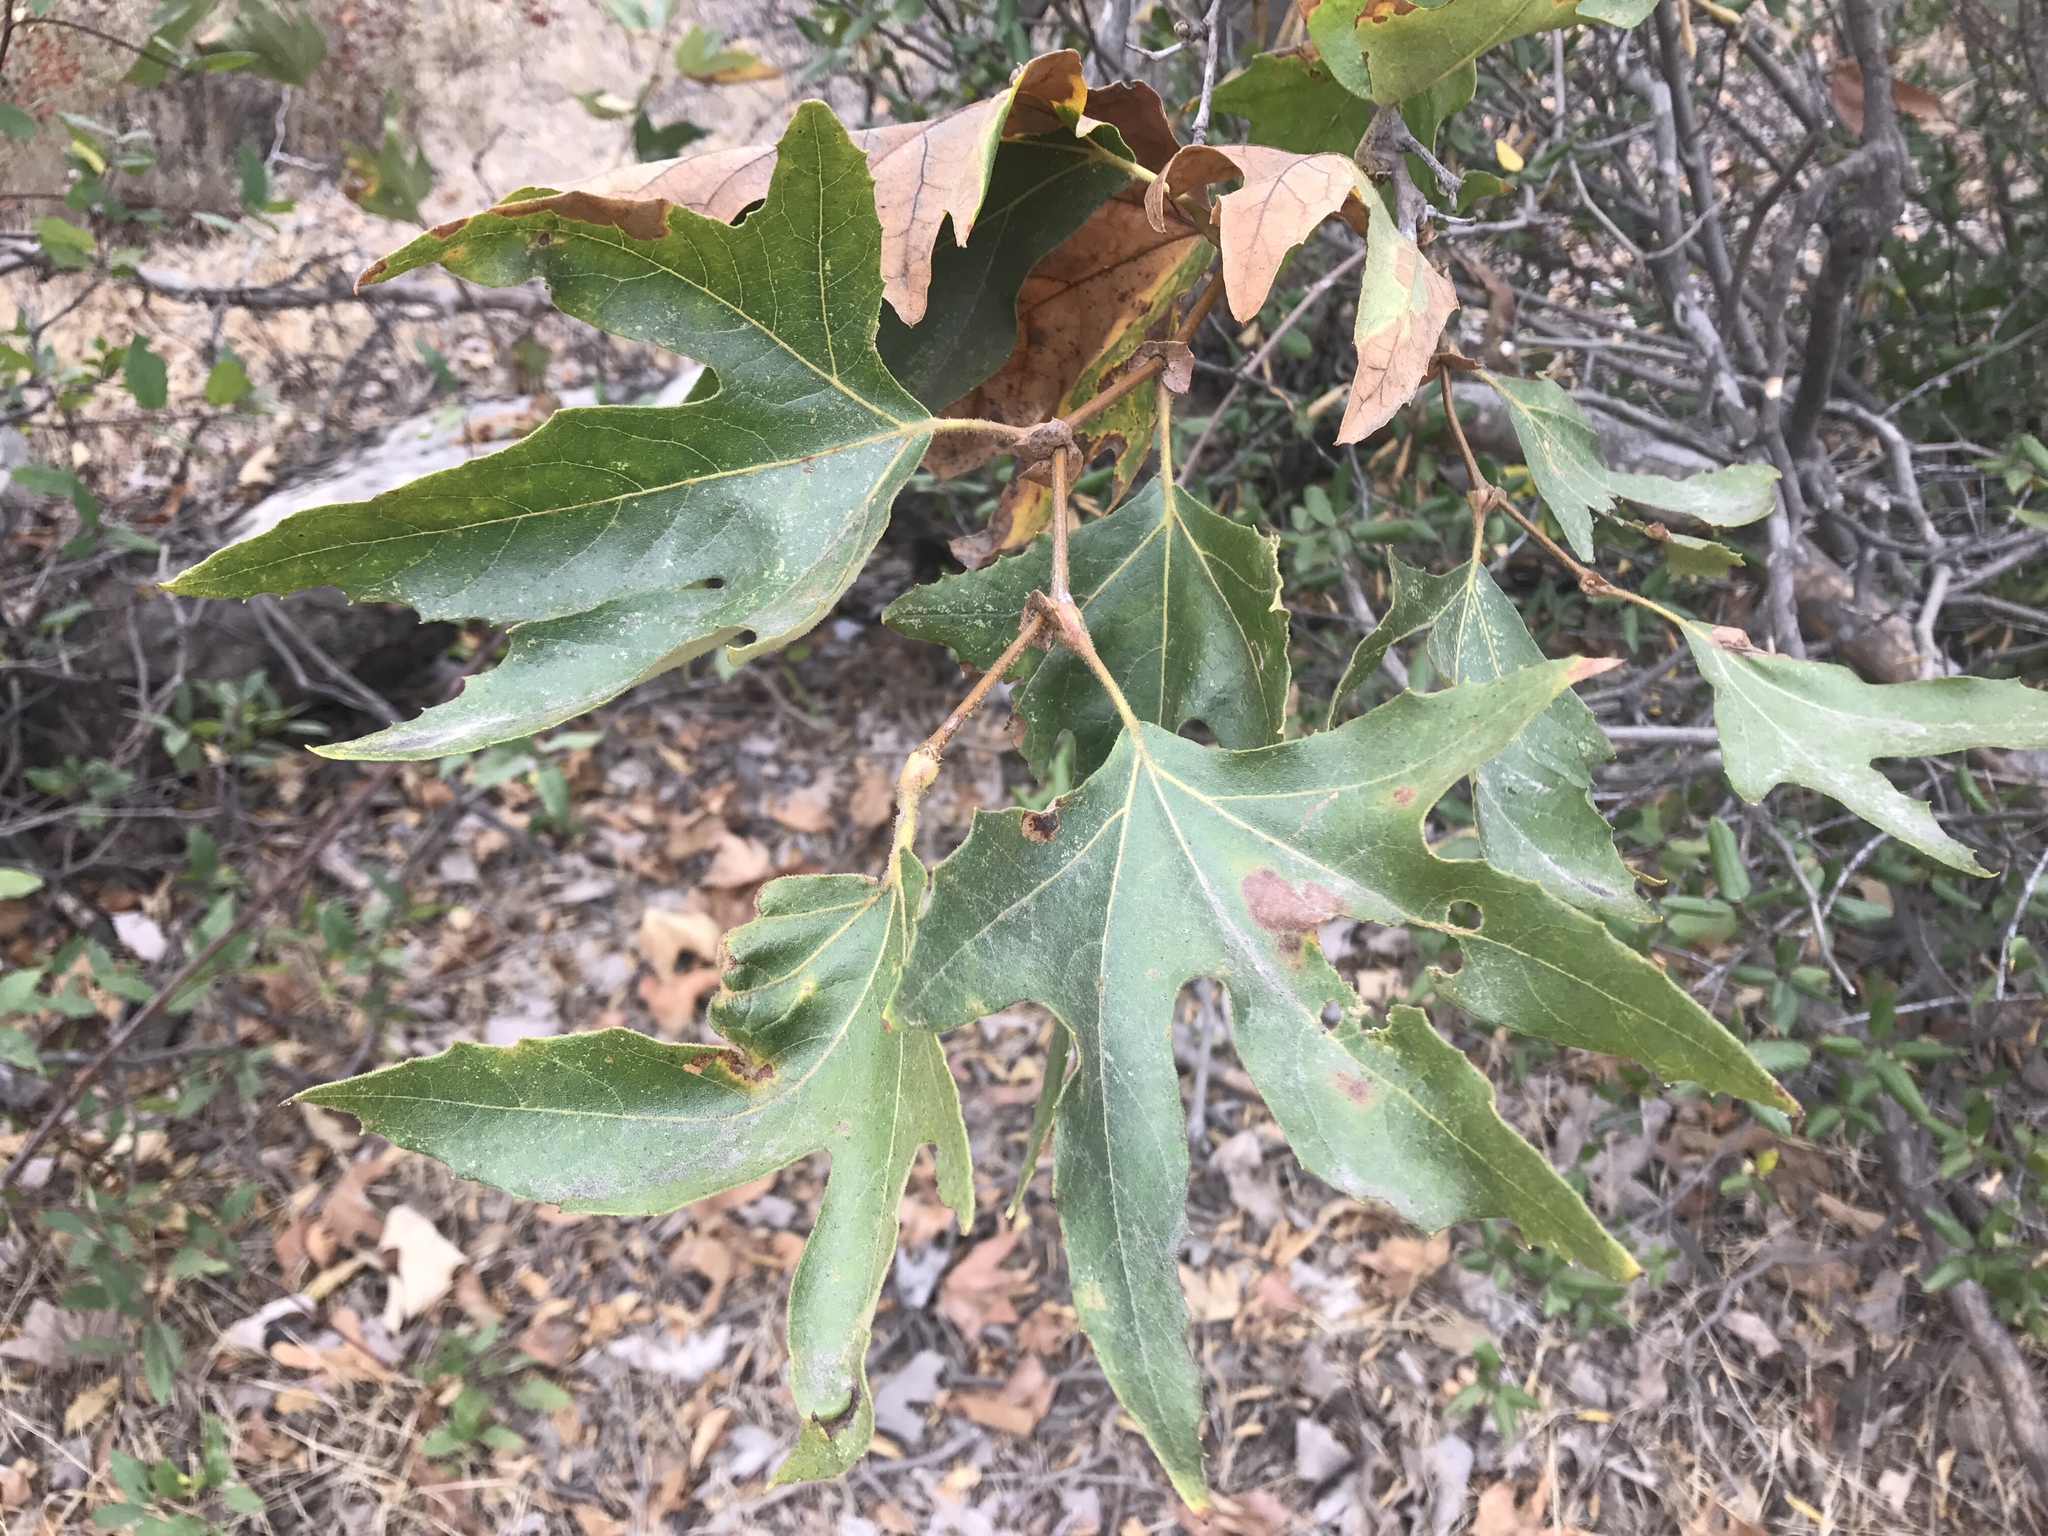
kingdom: Plantae
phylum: Tracheophyta
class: Magnoliopsida
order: Proteales
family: Platanaceae
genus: Platanus
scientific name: Platanus racemosa
